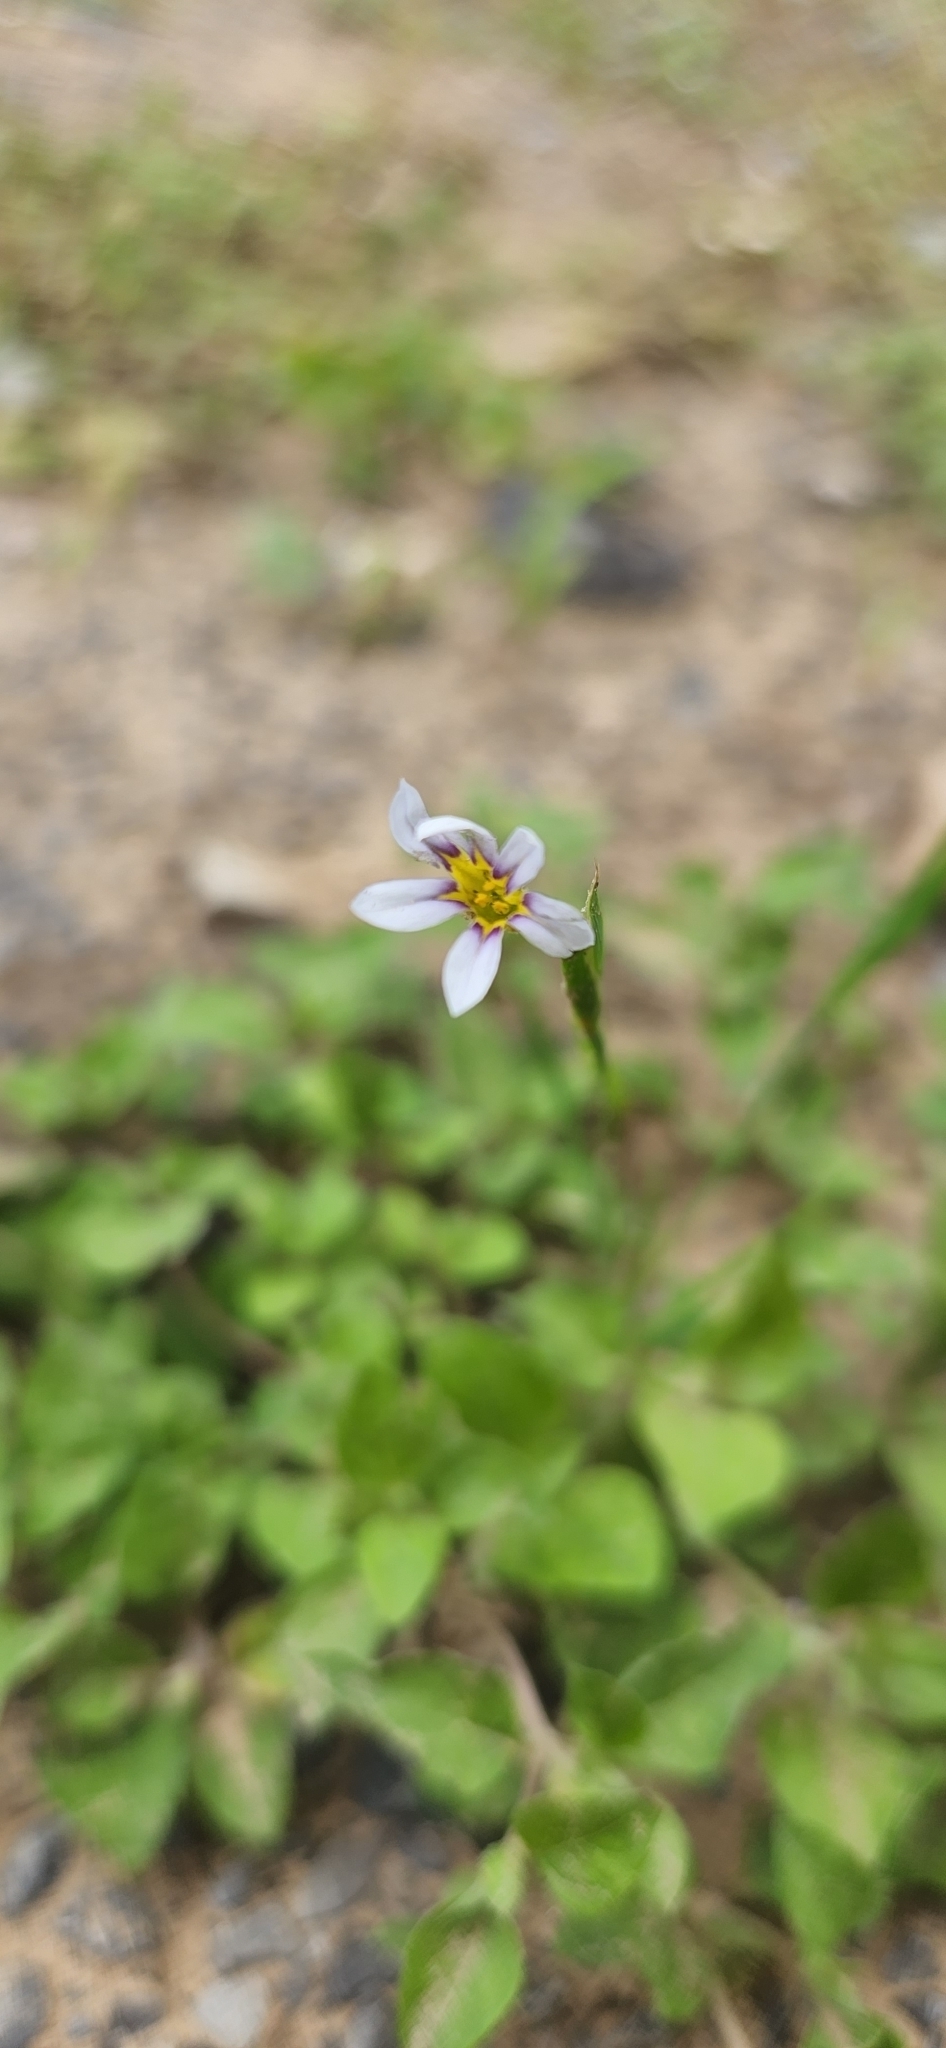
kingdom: Plantae
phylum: Tracheophyta
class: Liliopsida
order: Asparagales
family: Iridaceae
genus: Sisyrinchium
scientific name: Sisyrinchium micranthum
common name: Bermuda pigroot
